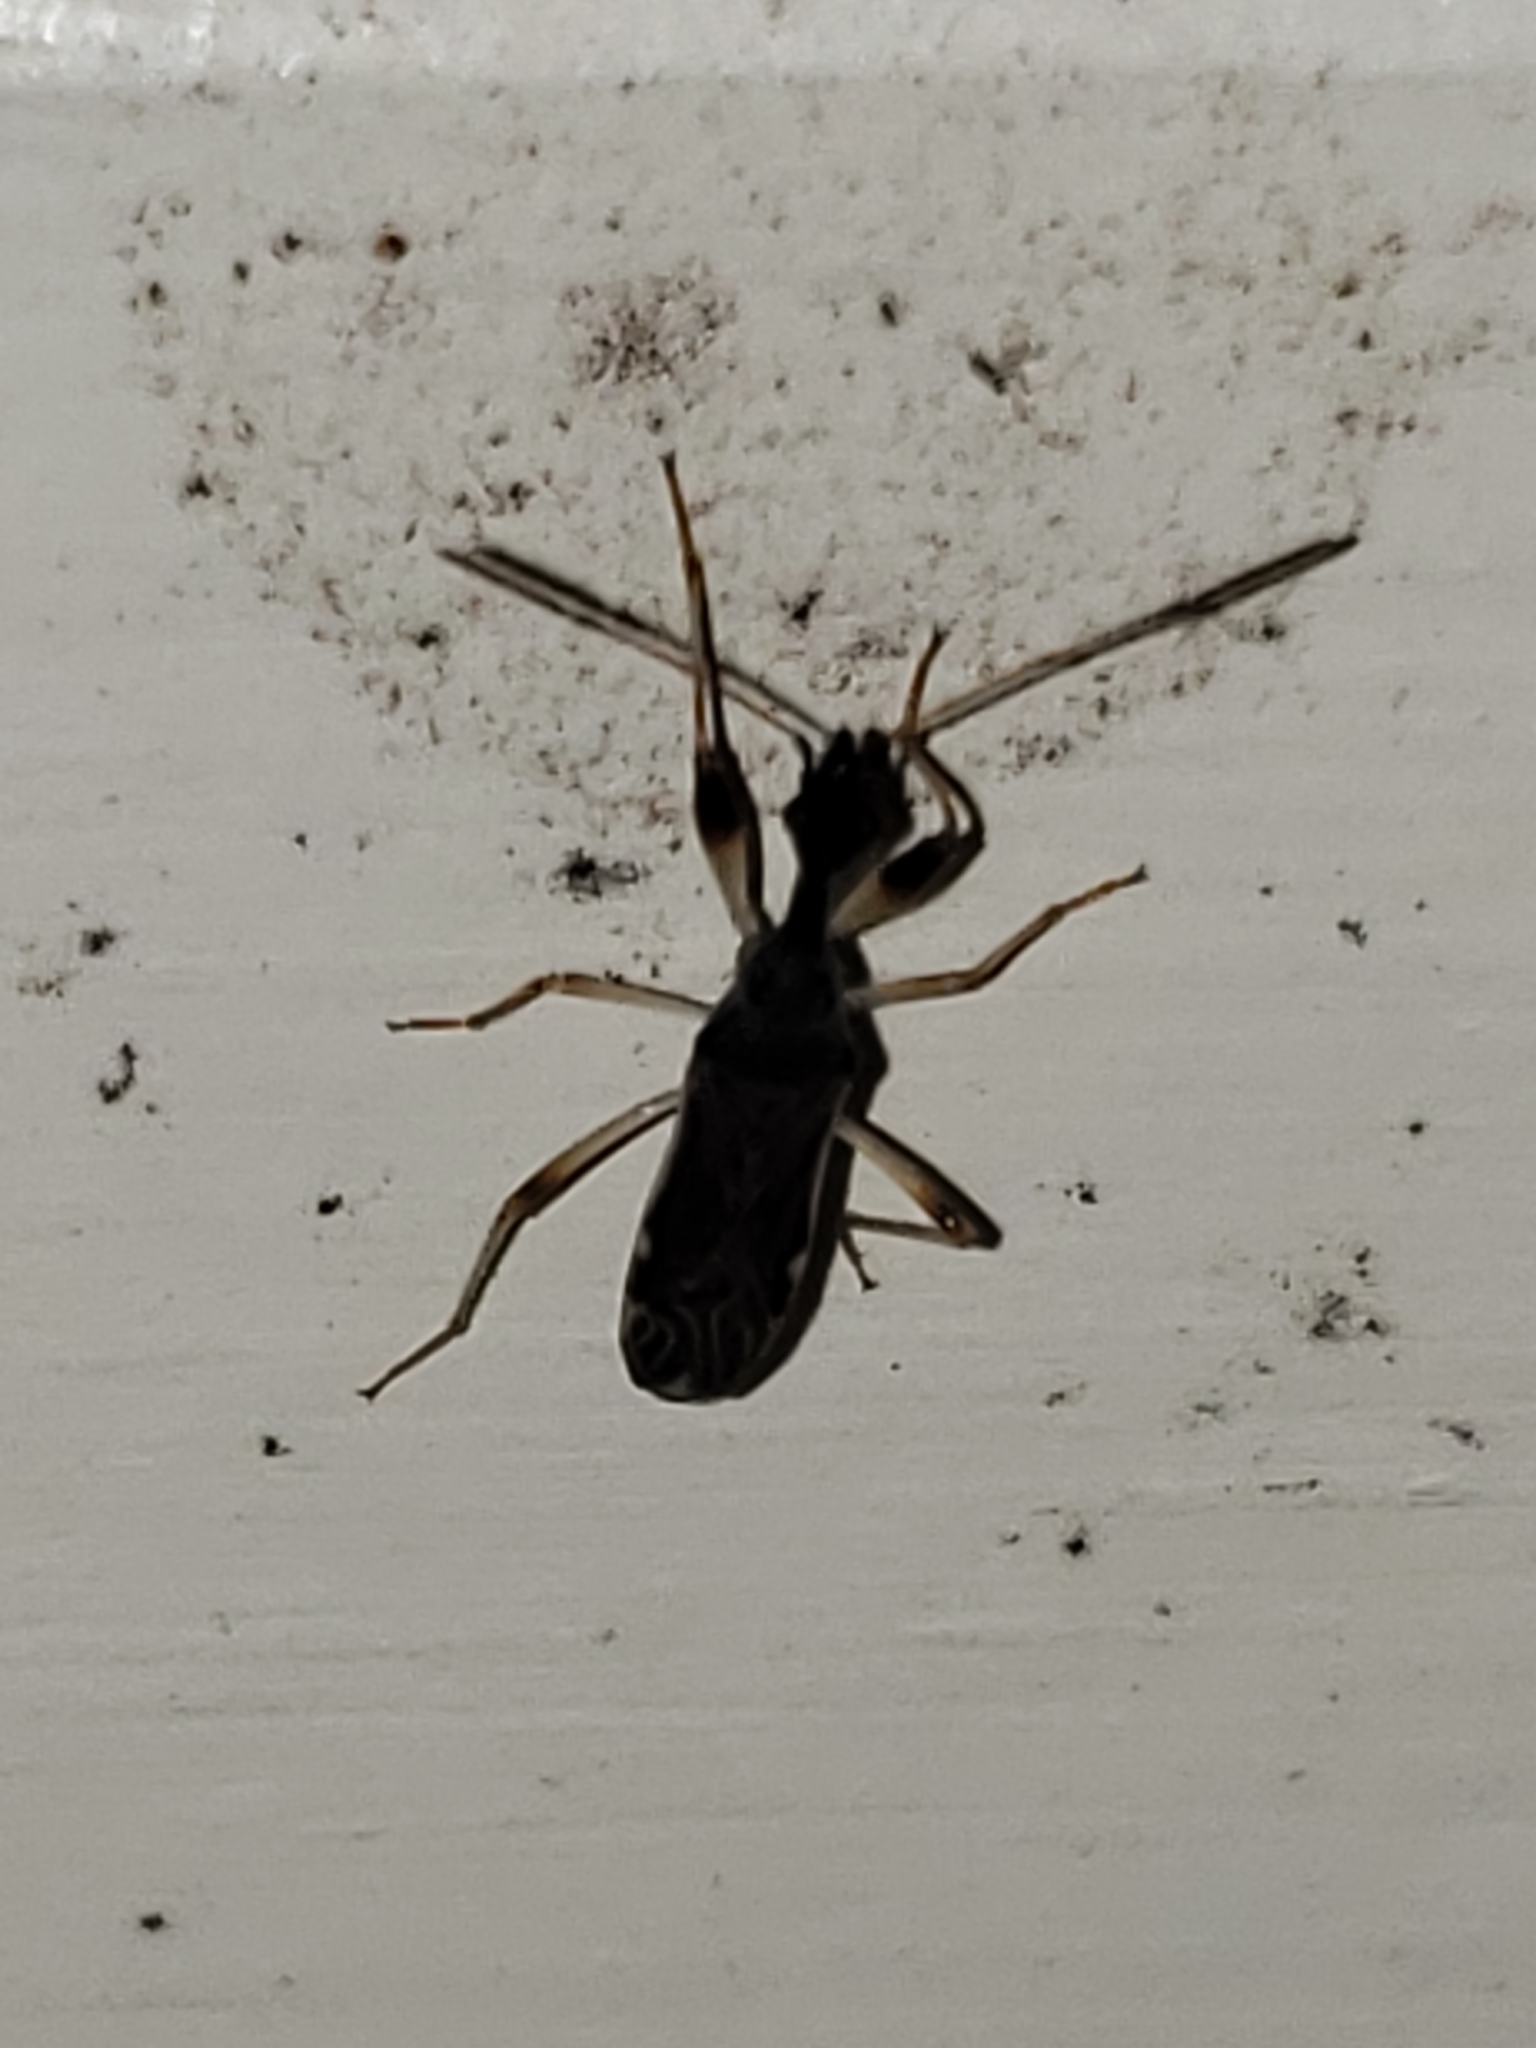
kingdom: Animalia
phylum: Arthropoda
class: Insecta
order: Hemiptera
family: Rhyparochromidae
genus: Myodocha
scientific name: Myodocha serripes
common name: Long-necked seed bug
